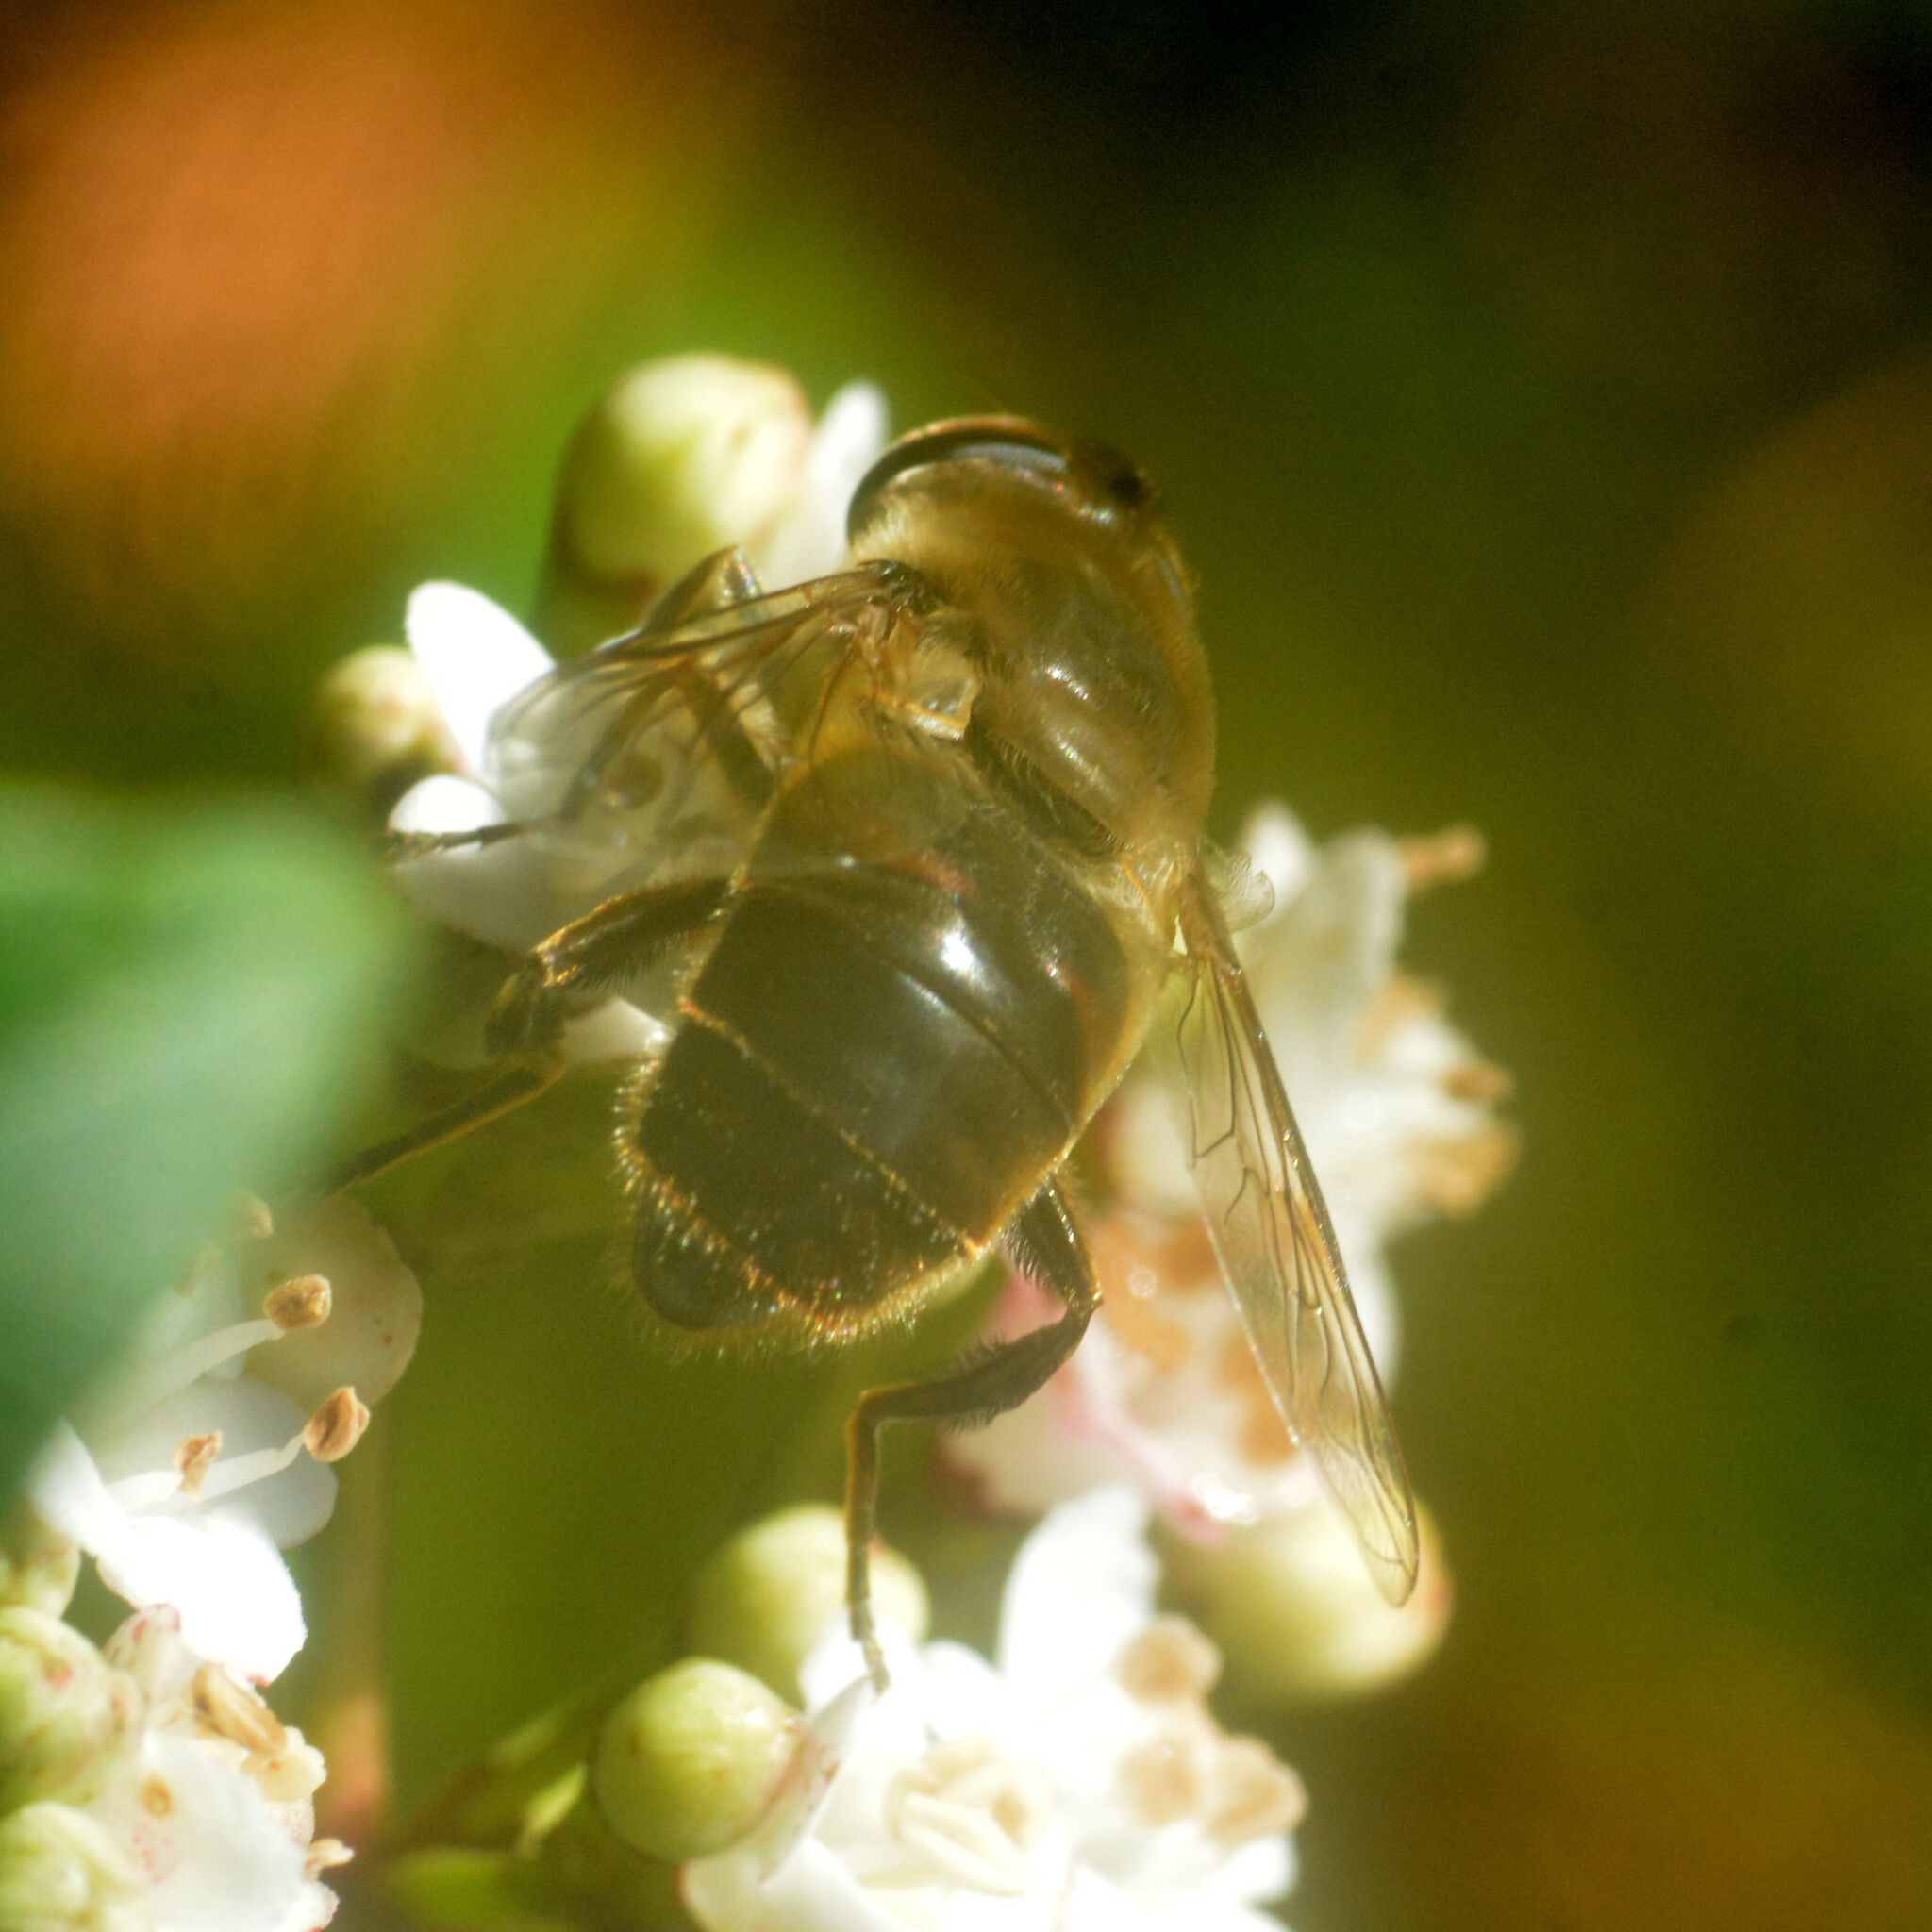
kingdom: Animalia
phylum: Arthropoda
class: Insecta
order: Diptera
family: Syrphidae
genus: Eristalis
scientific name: Eristalis tenax
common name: Drone fly
